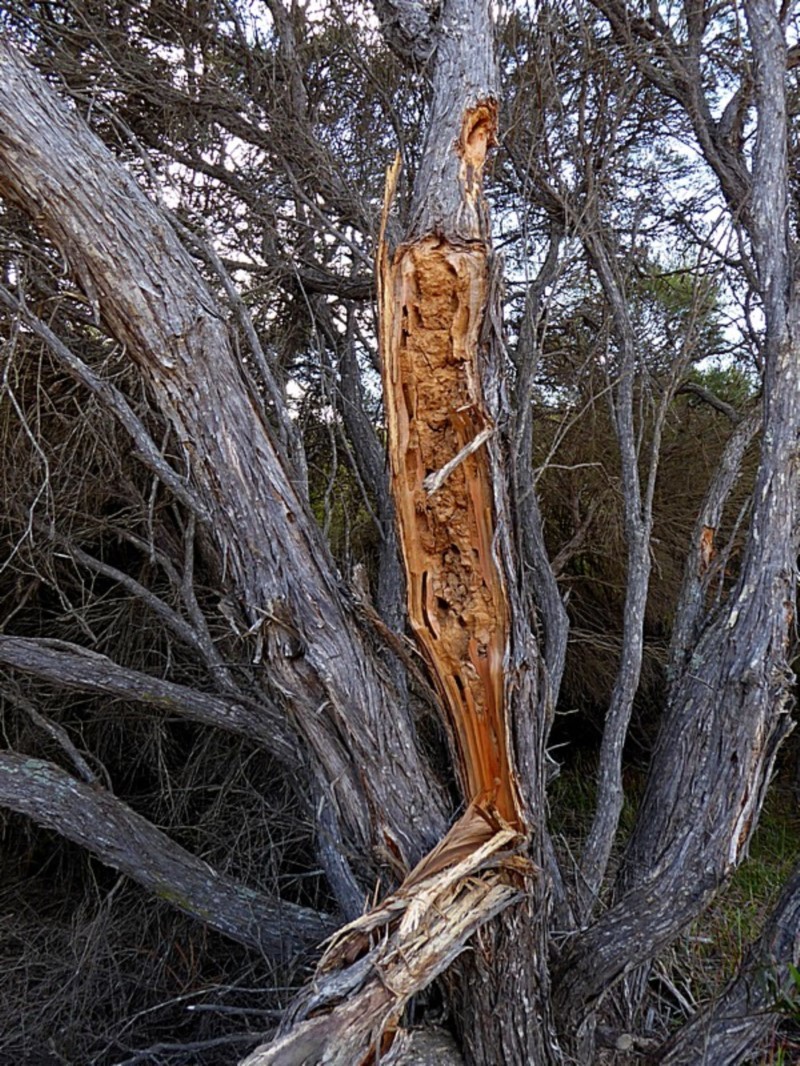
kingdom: Animalia
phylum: Chordata
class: Aves
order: Psittaciformes
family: Cacatuidae
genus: Zanda
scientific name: Zanda funerea
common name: Yellow-tailed black-cockatoo
